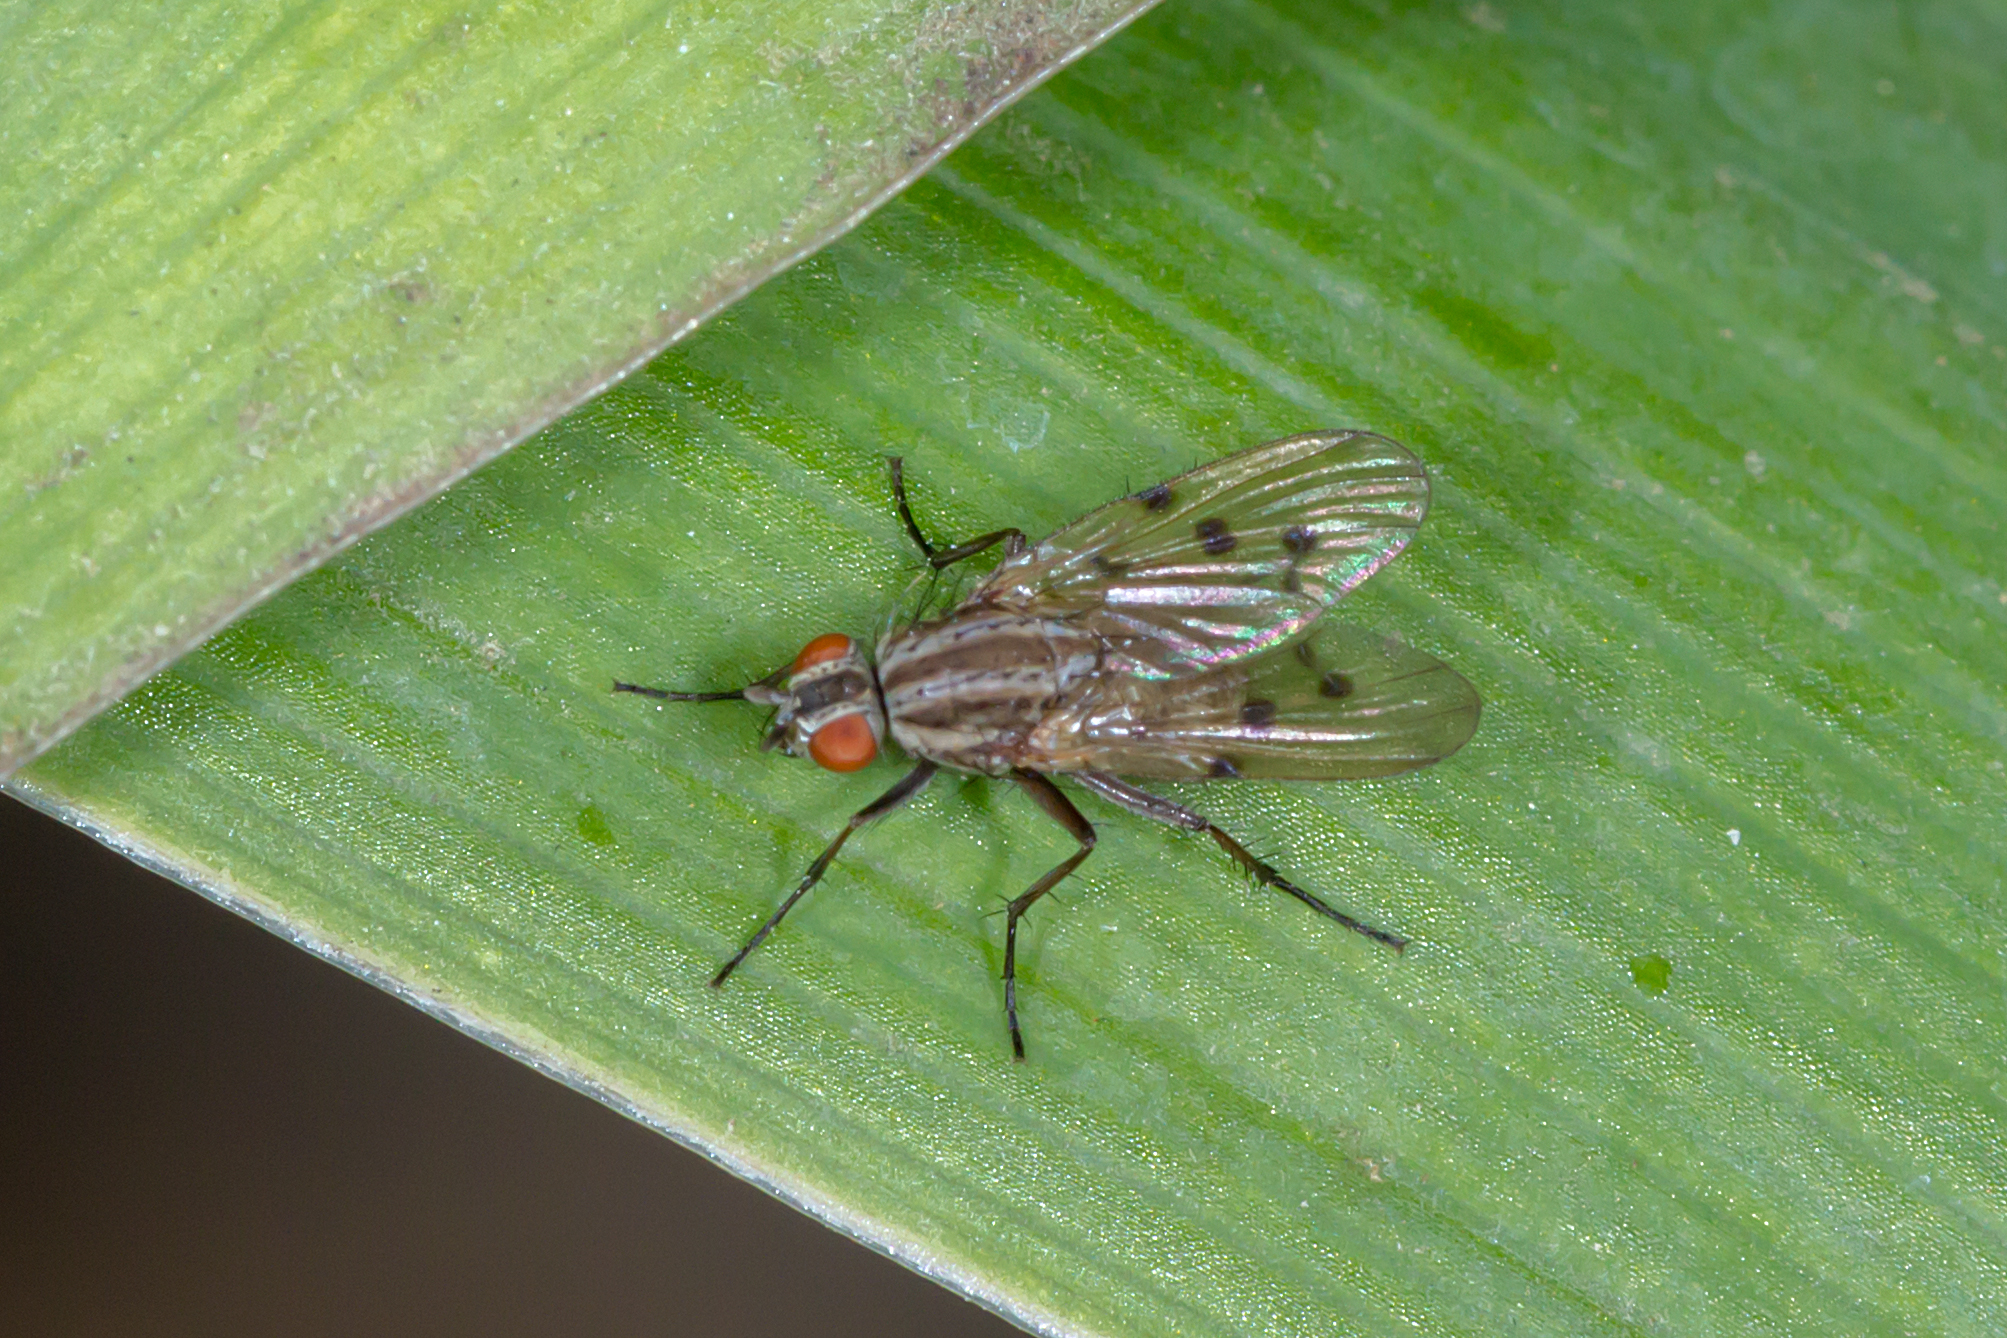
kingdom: Animalia
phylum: Arthropoda
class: Insecta
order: Diptera
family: Anthomyiidae
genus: Anthomyia
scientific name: Anthomyia punctipennis
